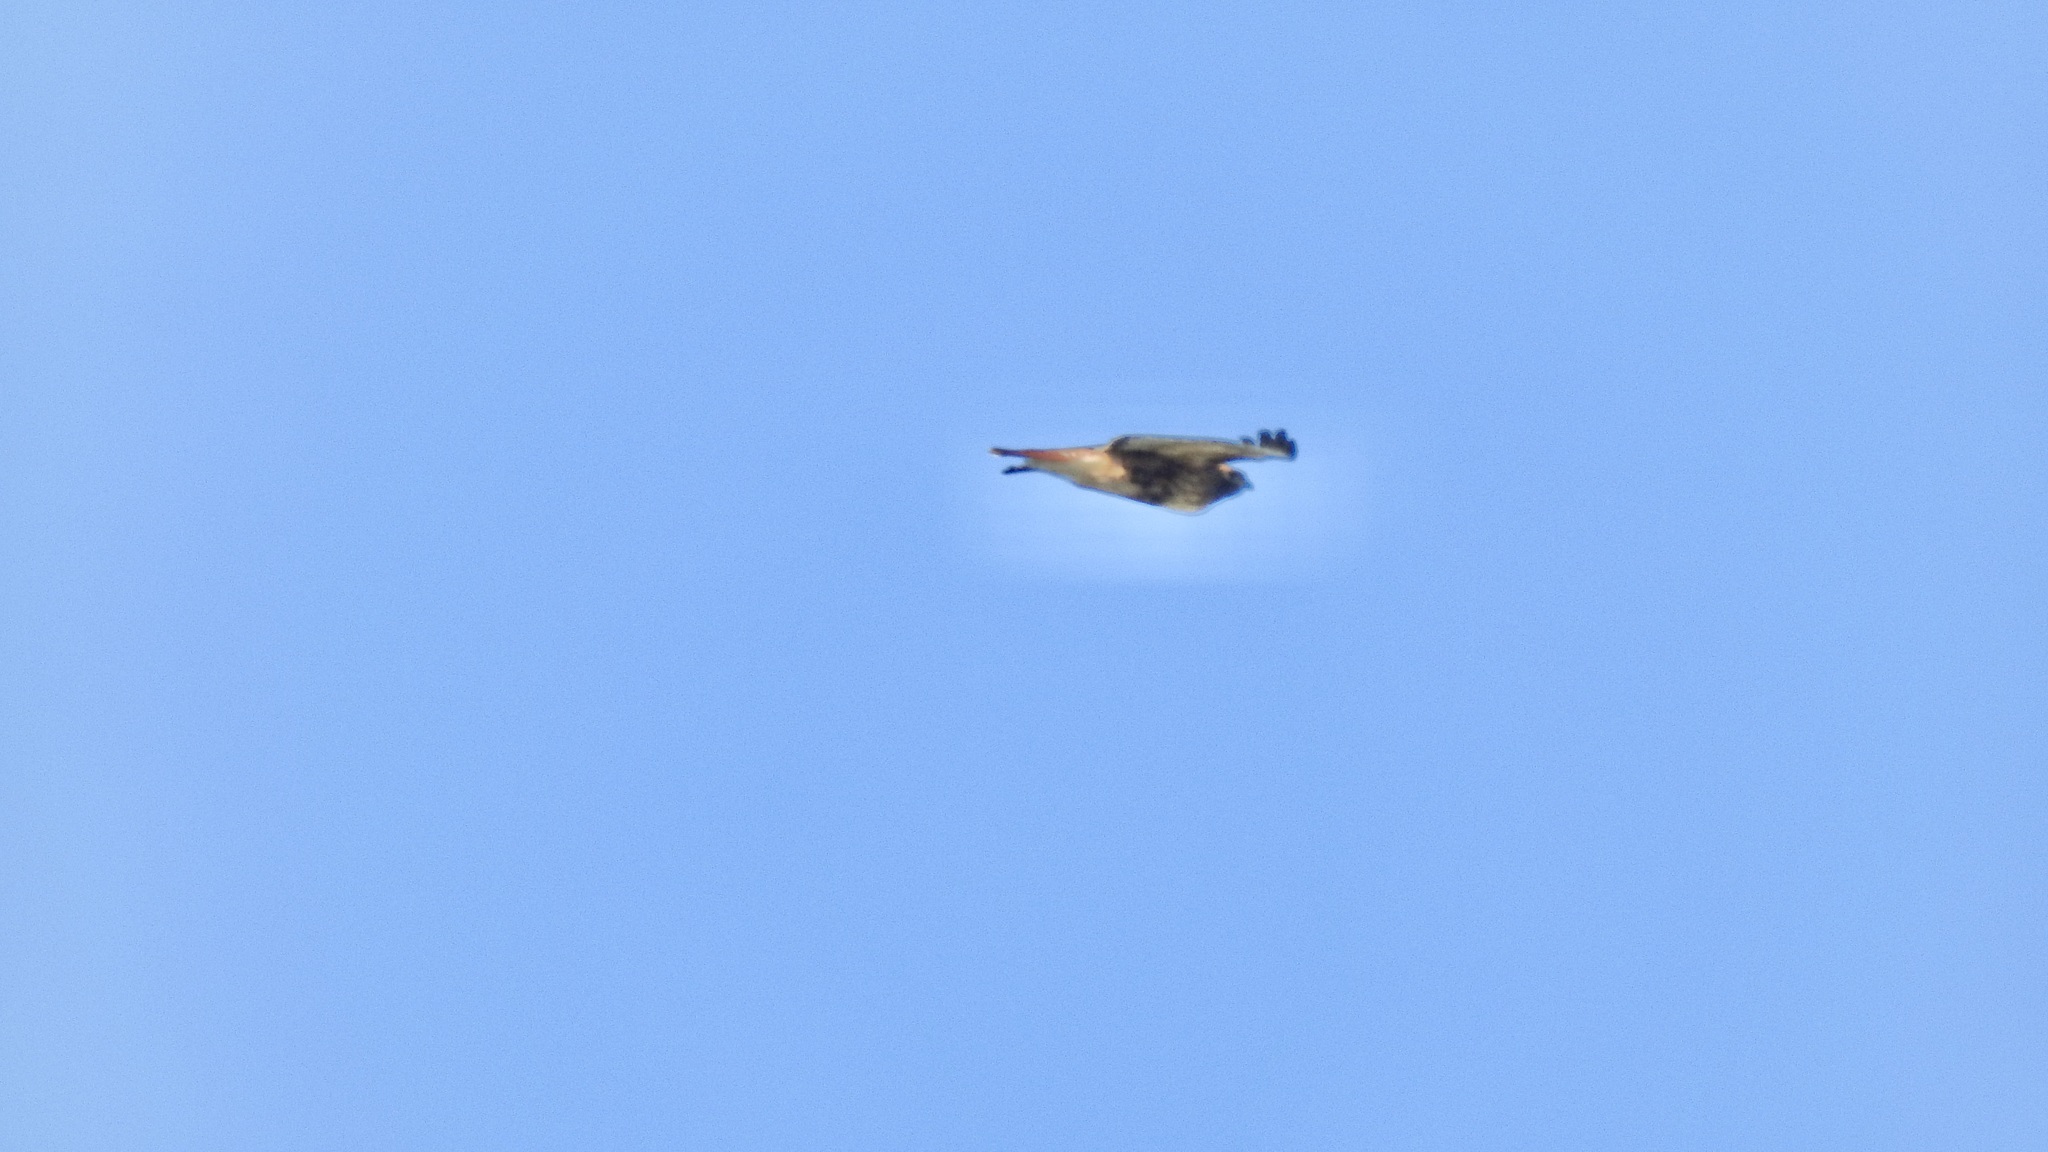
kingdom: Animalia
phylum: Chordata
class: Aves
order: Accipitriformes
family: Accipitridae
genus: Buteo
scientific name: Buteo jamaicensis
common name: Red-tailed hawk
